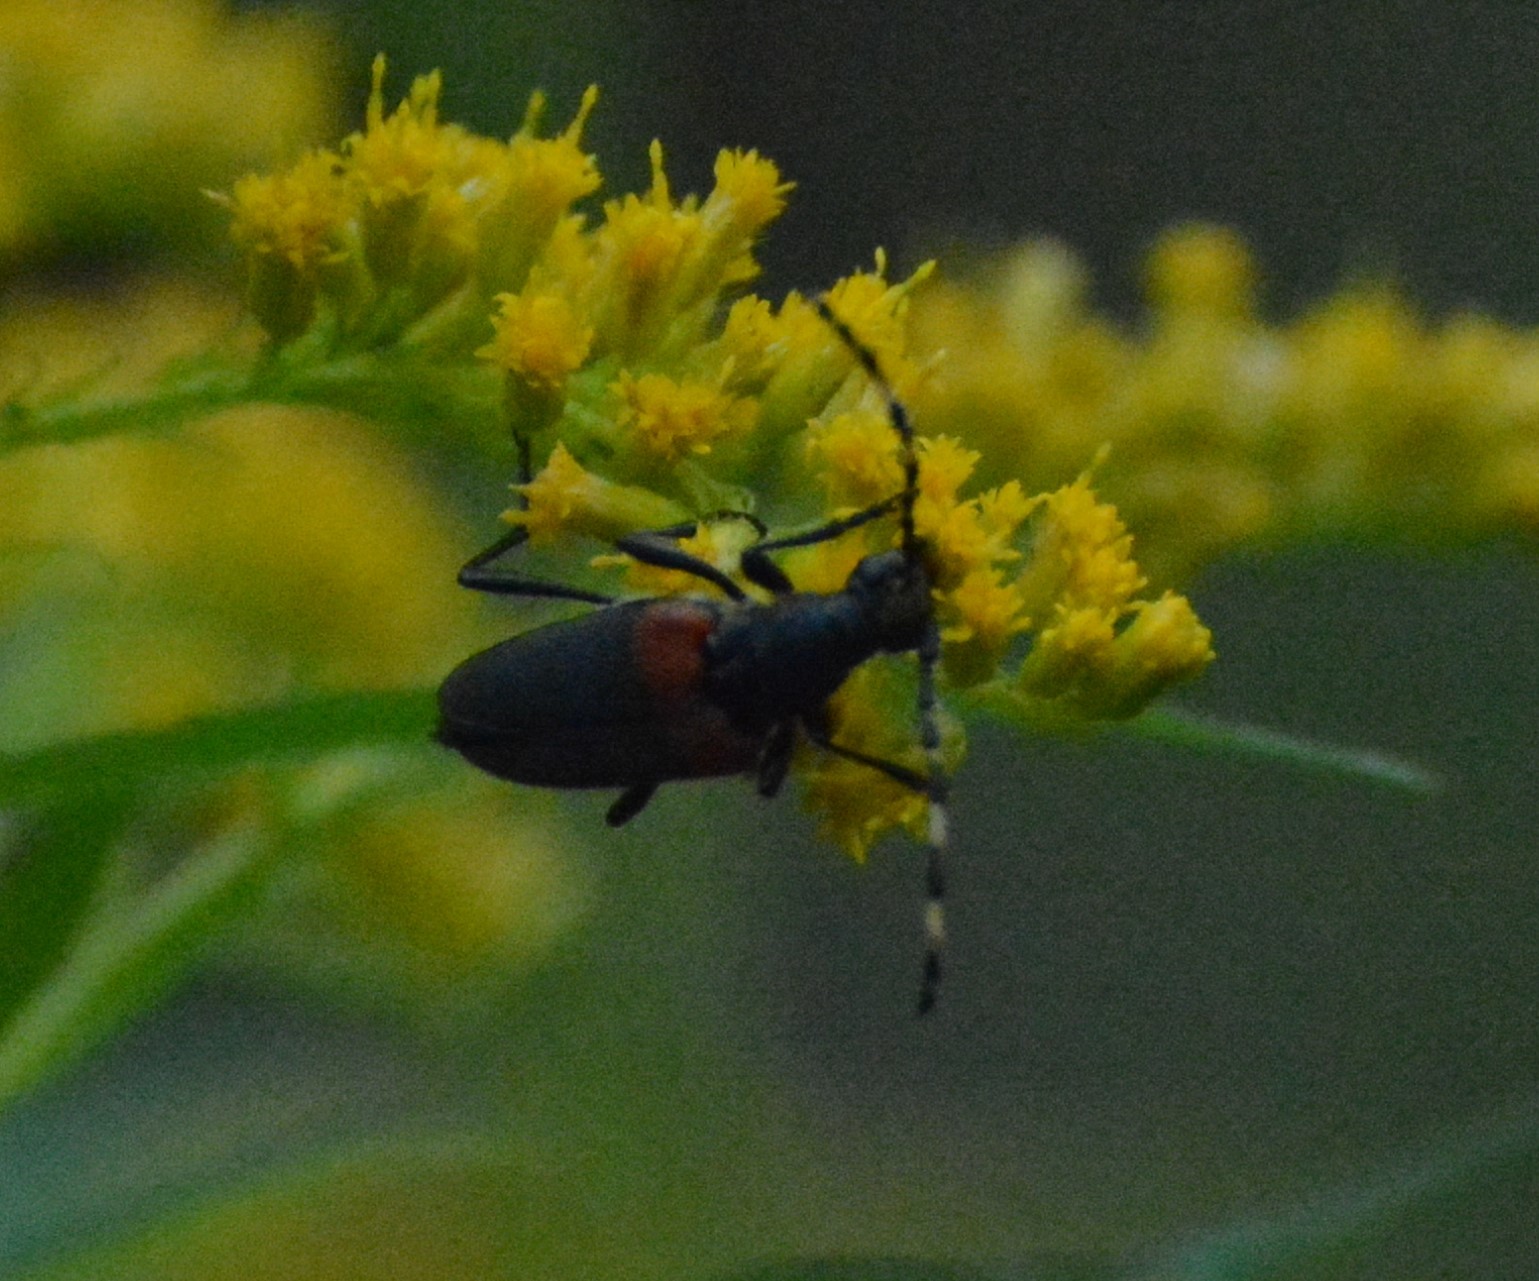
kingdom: Animalia
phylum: Arthropoda
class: Insecta
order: Coleoptera
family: Cerambycidae
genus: Stictoleptura
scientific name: Stictoleptura canadensis
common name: Red-shouldered pine borer
